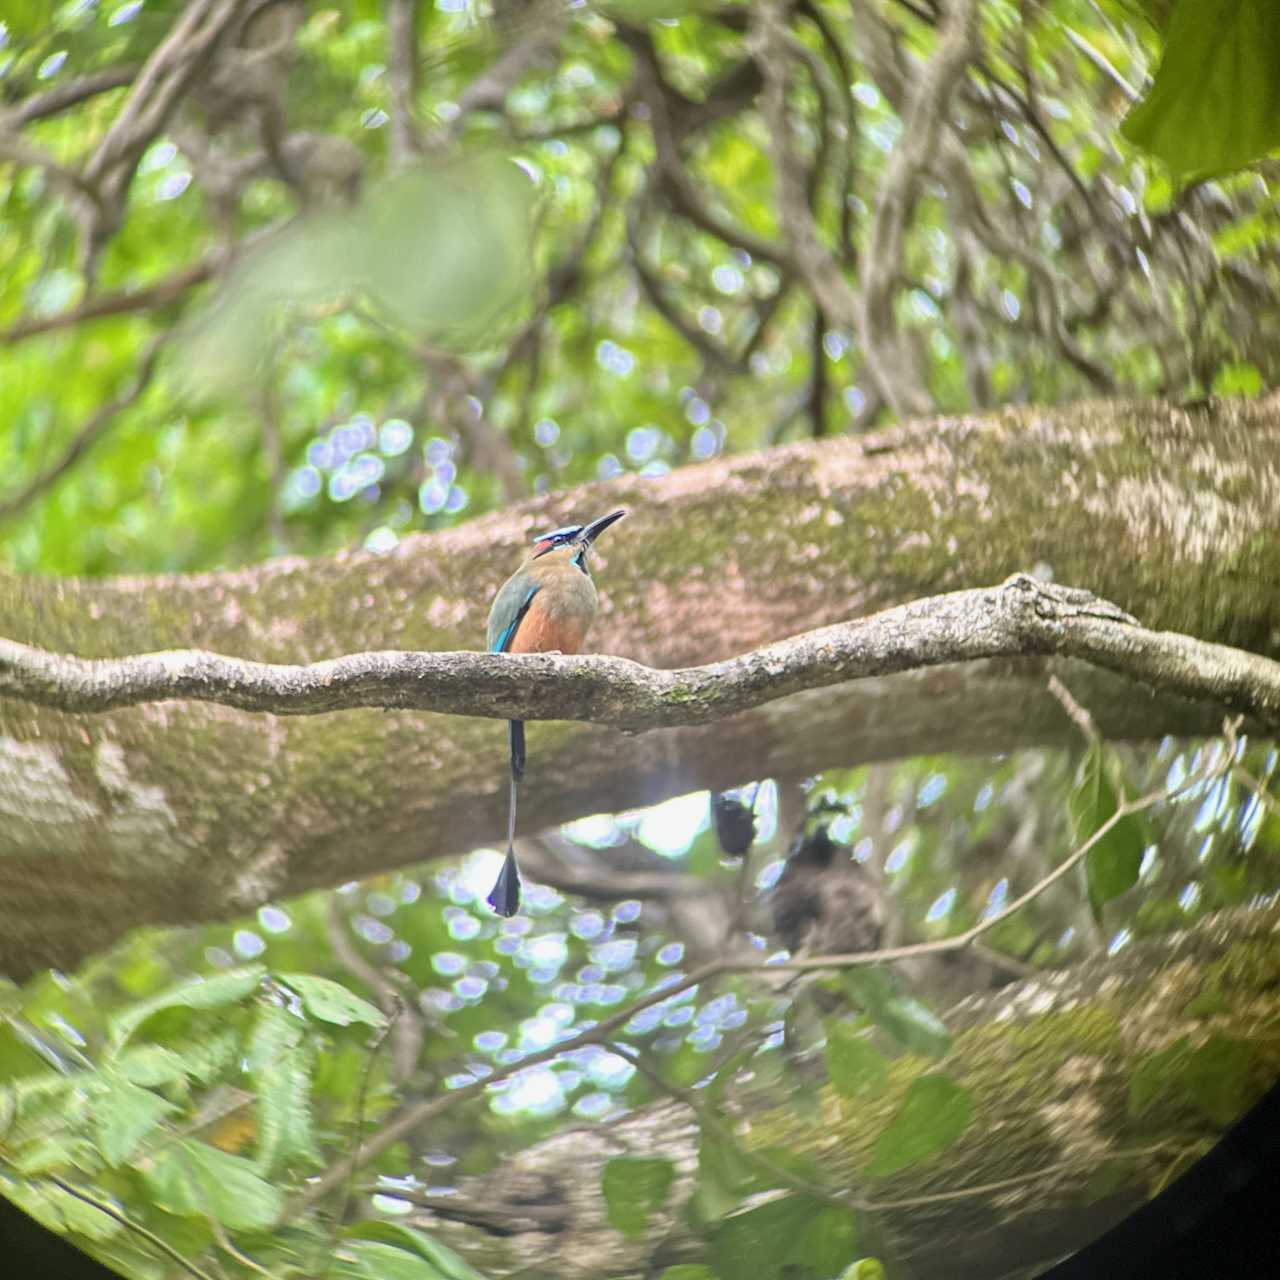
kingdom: Animalia
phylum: Chordata
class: Aves
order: Coraciiformes
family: Momotidae
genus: Eumomota
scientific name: Eumomota superciliosa
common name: Turquoise-browed motmot
